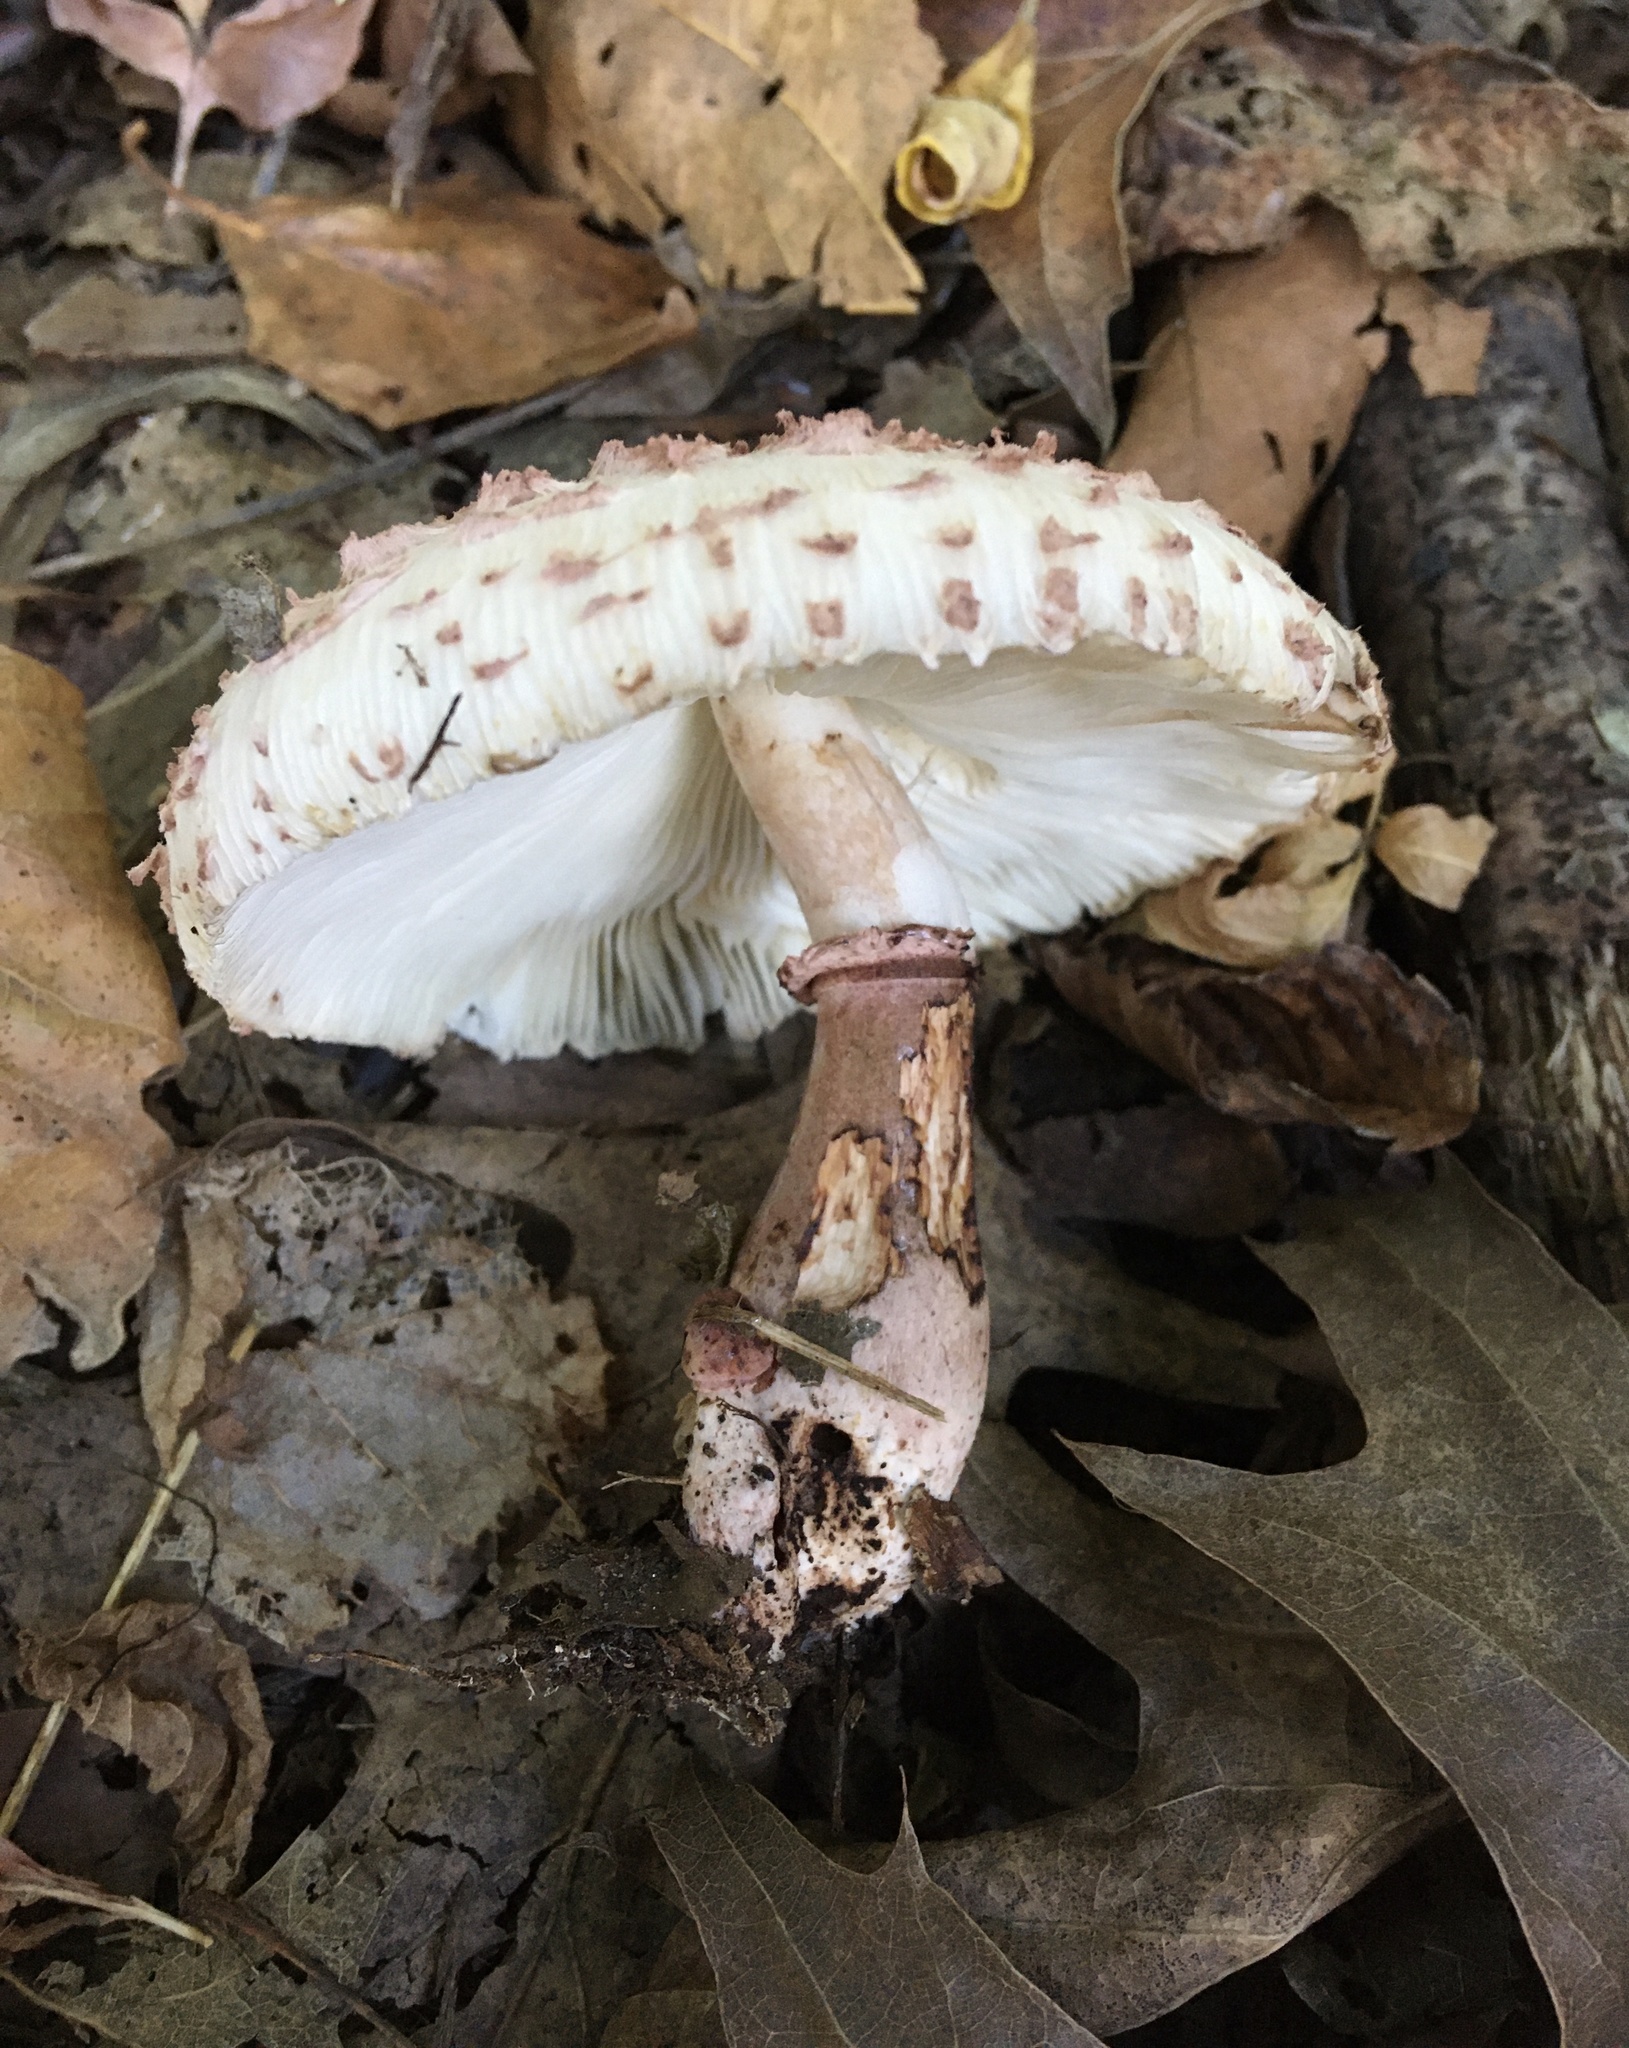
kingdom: Fungi
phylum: Basidiomycota
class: Agaricomycetes
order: Agaricales
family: Agaricaceae
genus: Leucoagaricus
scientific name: Leucoagaricus americanus
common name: Reddening lepiota
